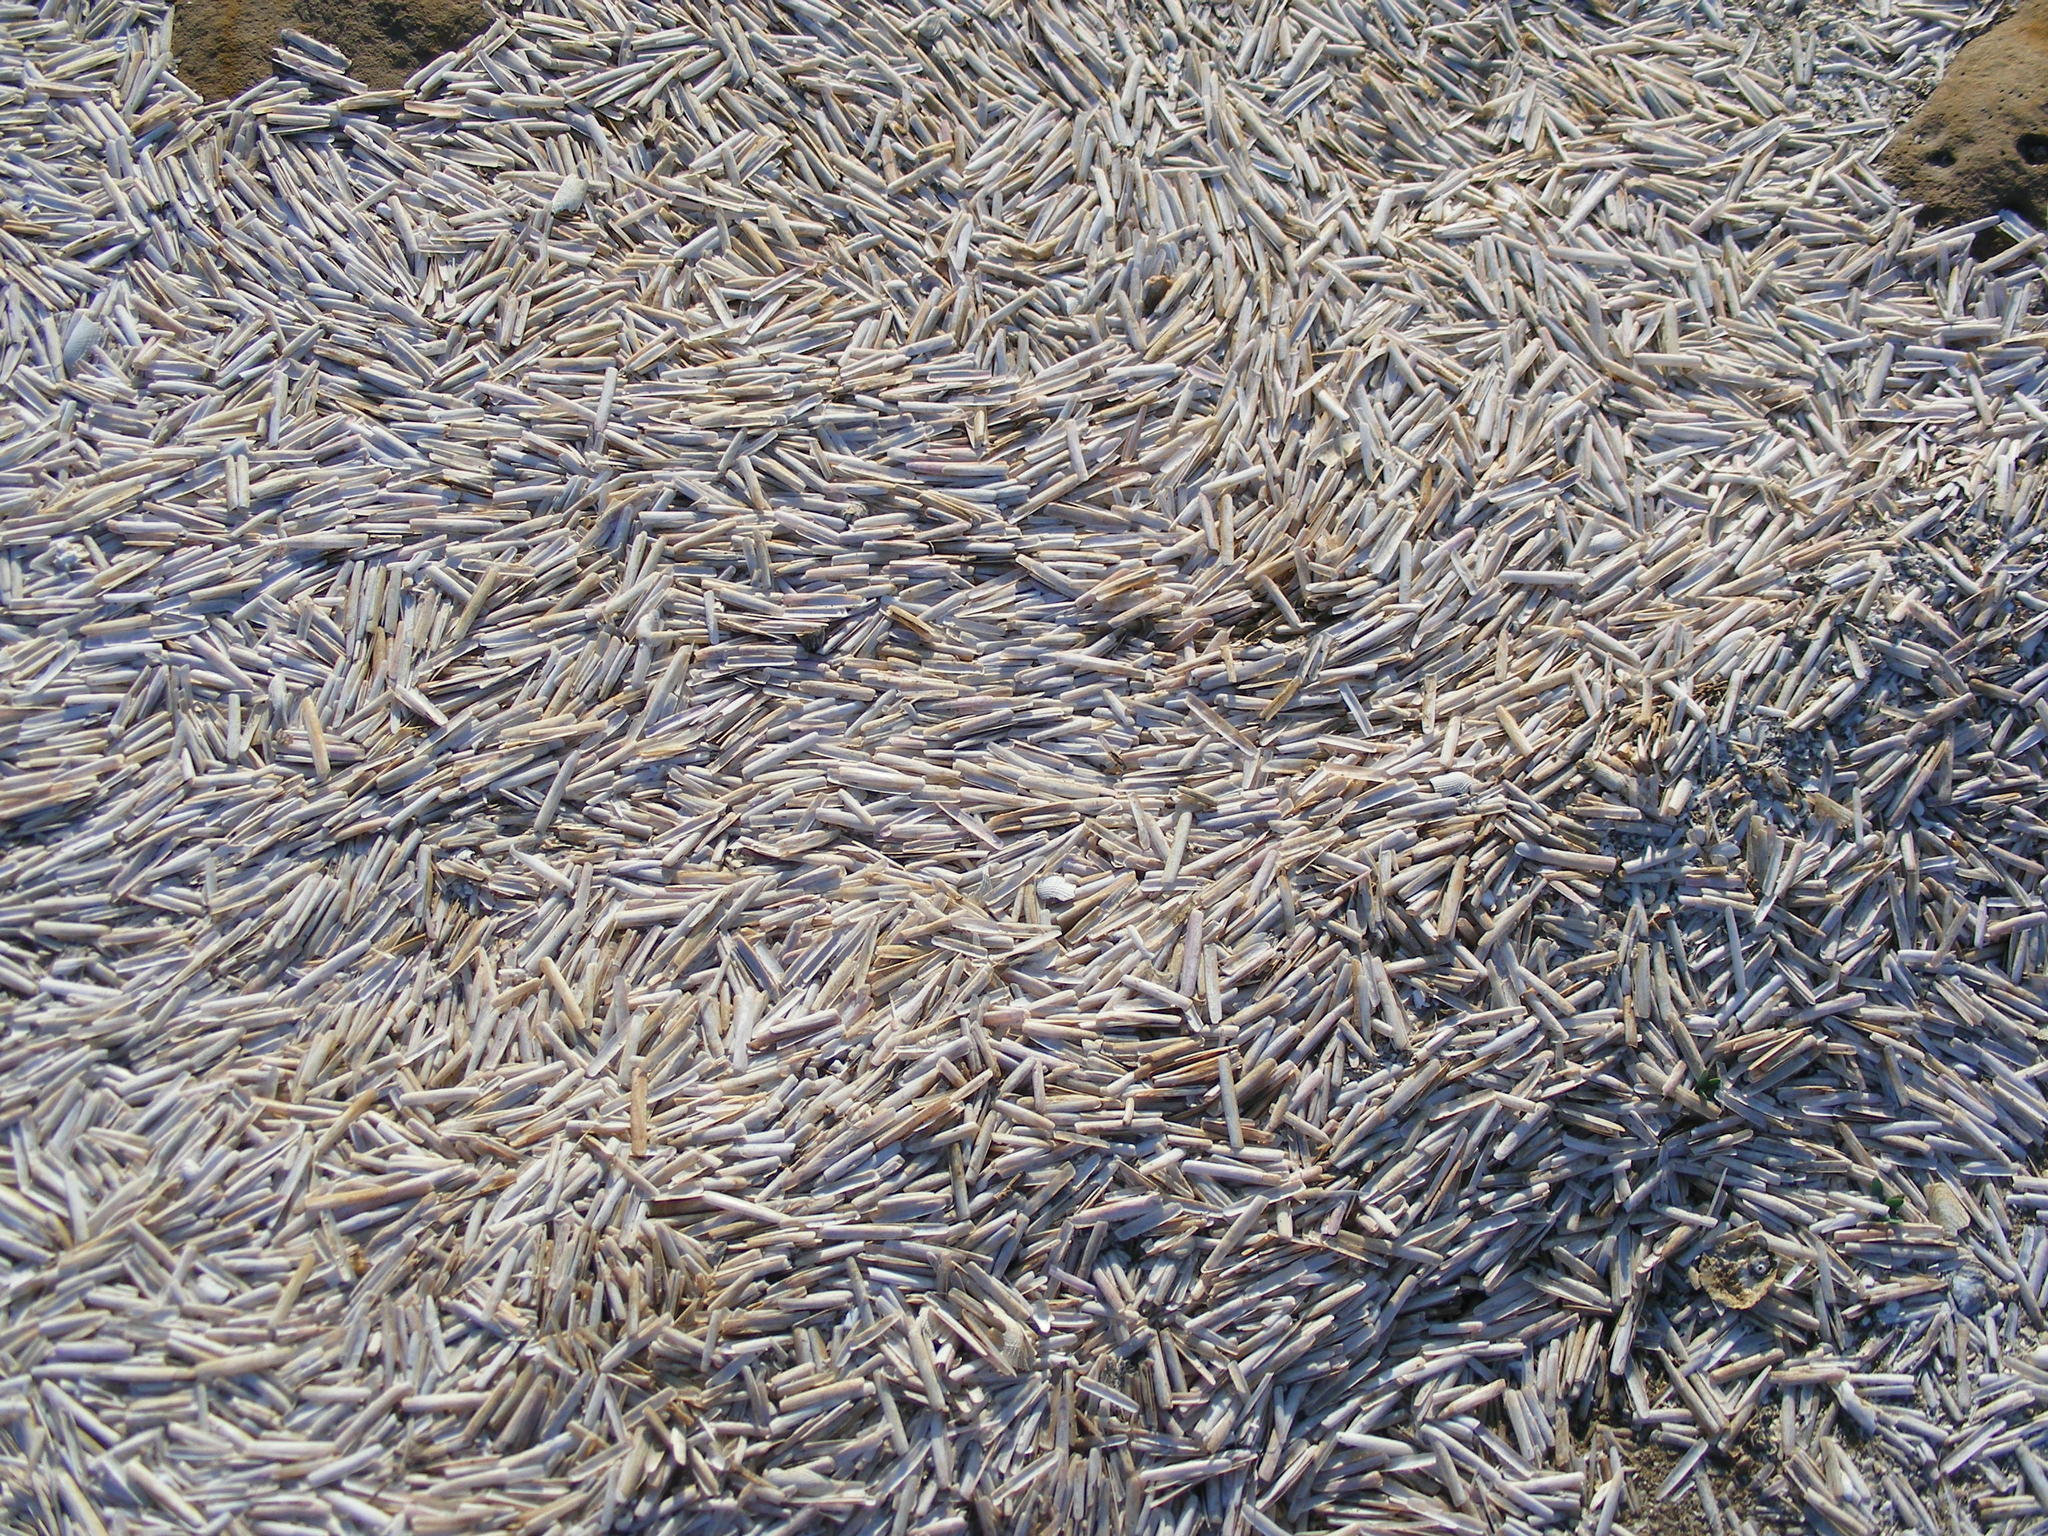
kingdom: Animalia
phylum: Mollusca
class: Bivalvia
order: Adapedonta
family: Solenidae
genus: Solen
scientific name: Solen cylindraceus
